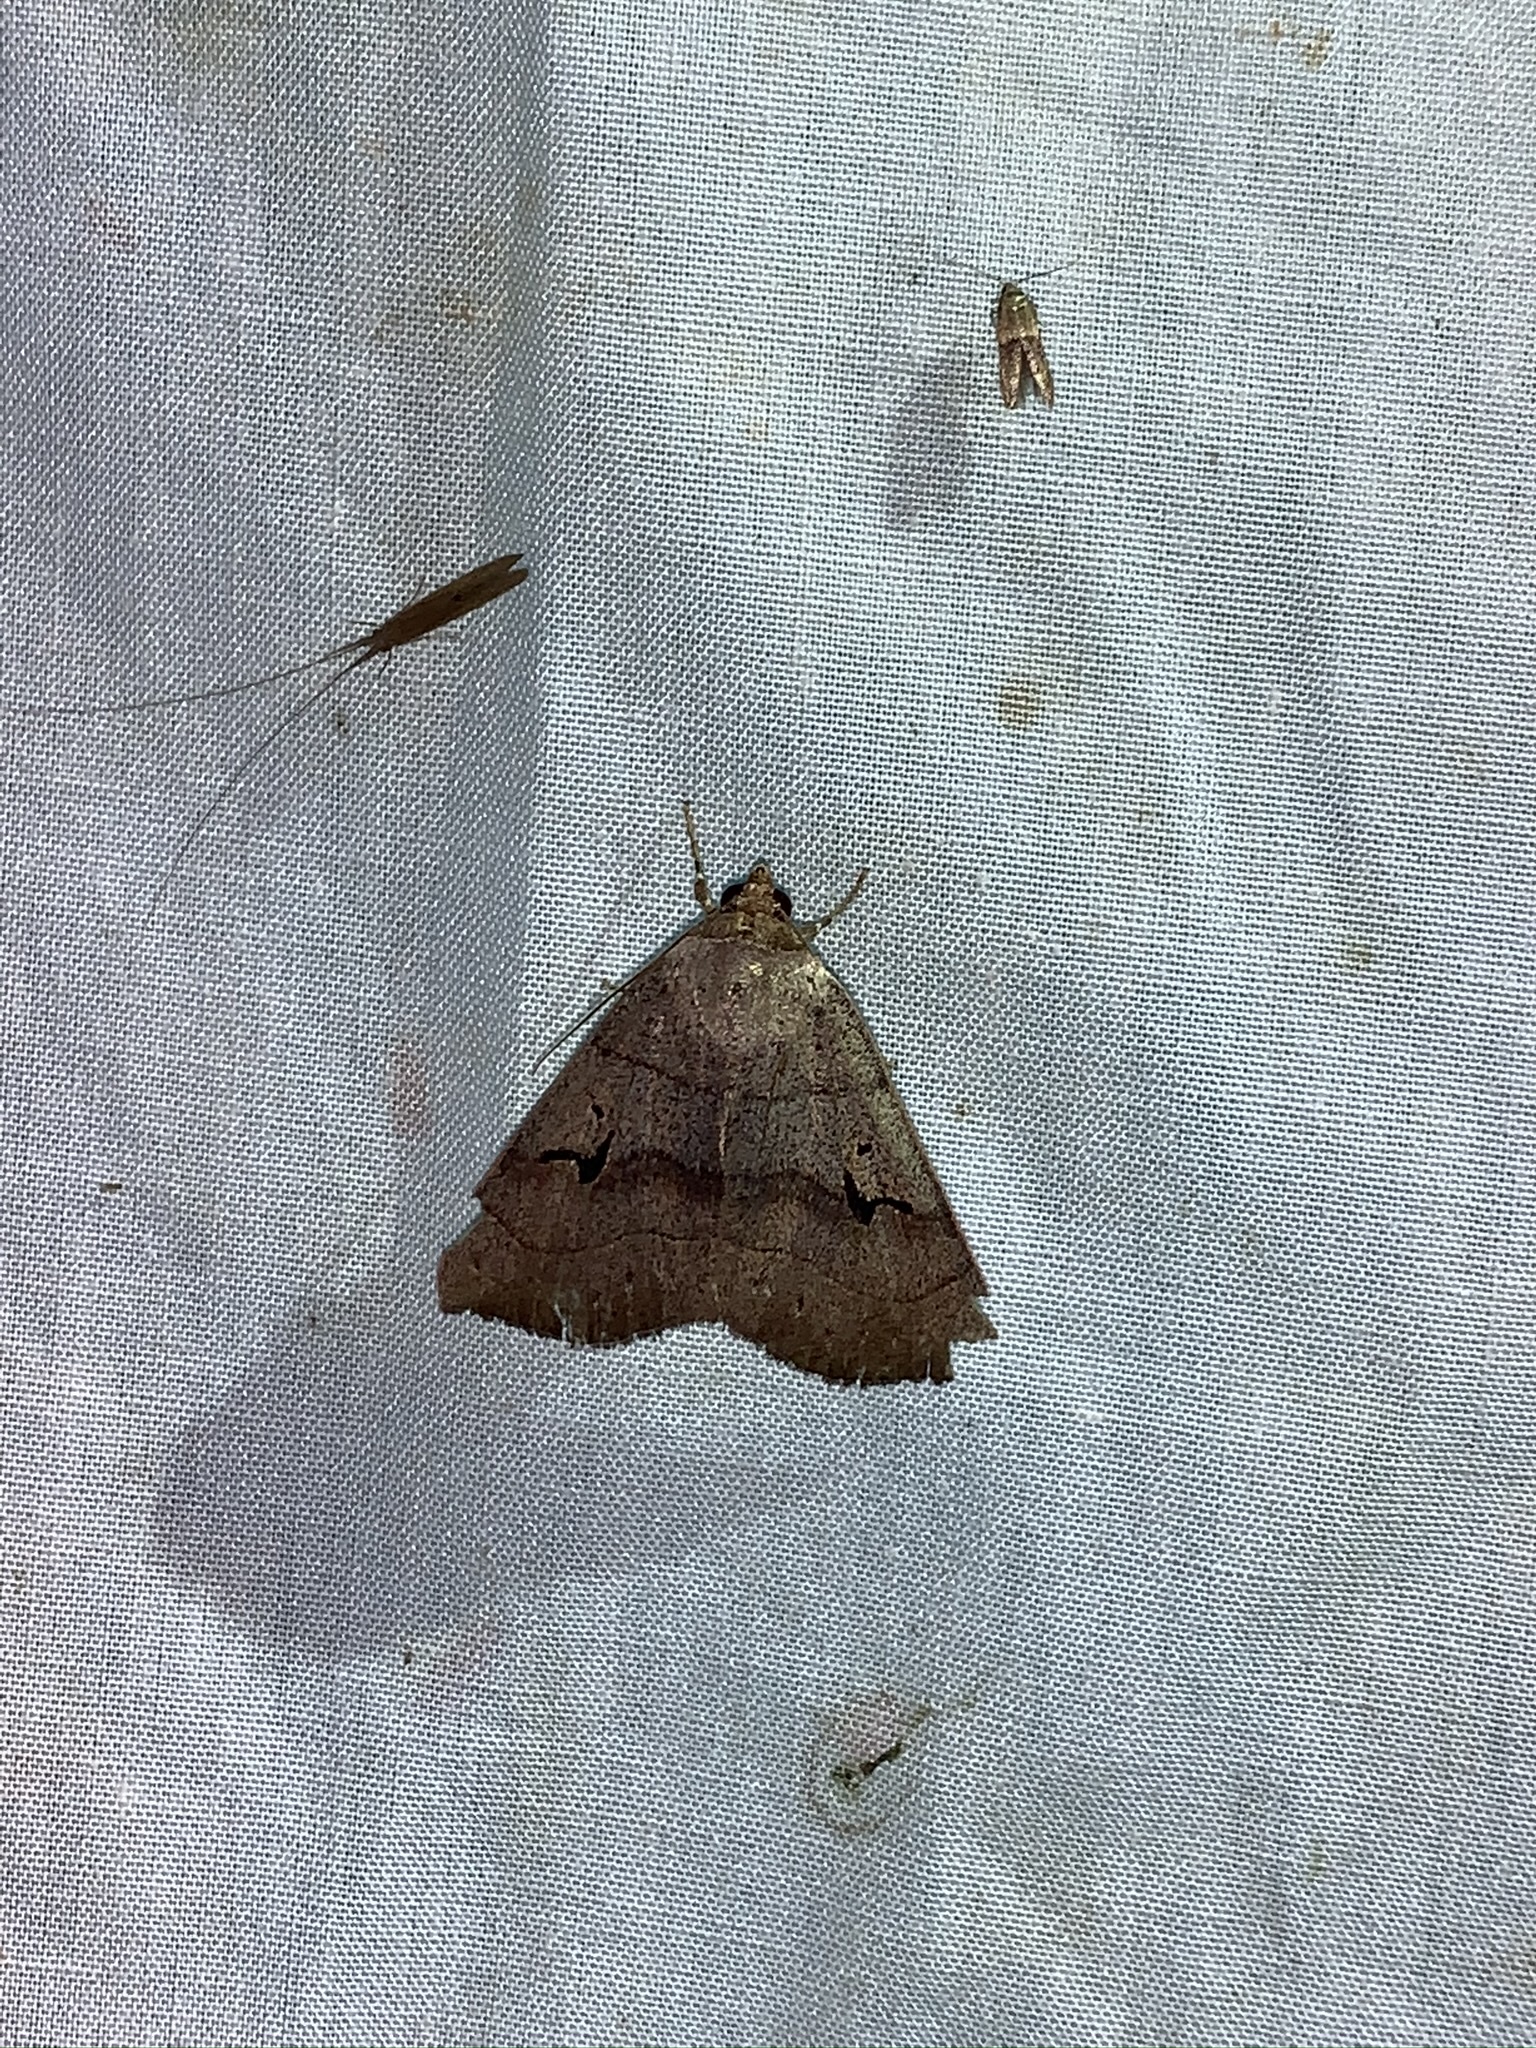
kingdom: Animalia
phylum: Arthropoda
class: Insecta
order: Lepidoptera
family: Erebidae
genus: Panopoda
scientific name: Panopoda carneicosta
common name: Brown panopoda moth
